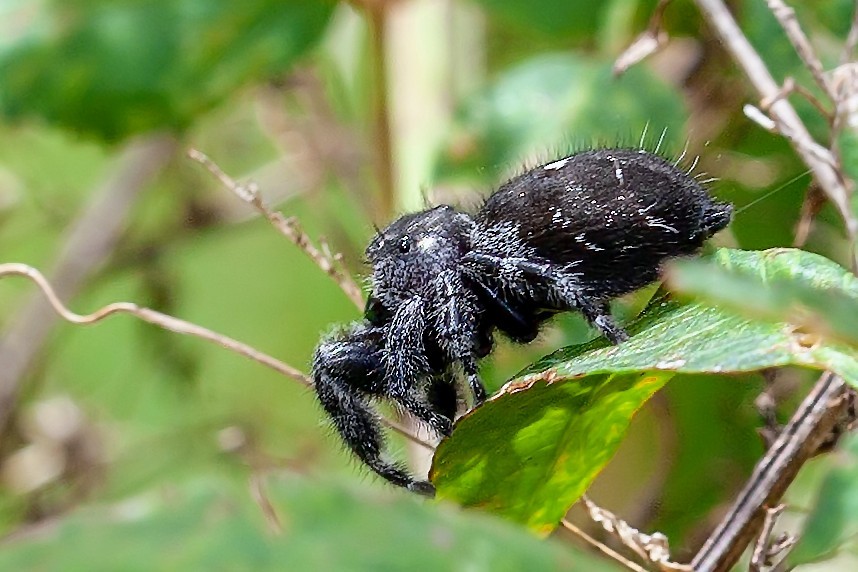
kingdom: Animalia
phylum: Arthropoda
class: Arachnida
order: Araneae
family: Salticidae
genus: Phidippus
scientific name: Phidippus audax
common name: Bold jumper
